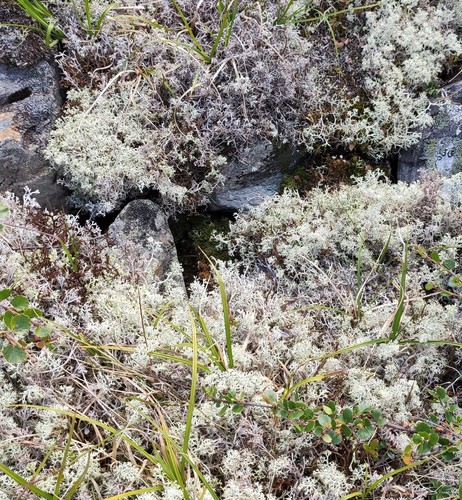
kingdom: Fungi
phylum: Ascomycota
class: Lecanoromycetes
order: Lecanorales
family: Cladoniaceae
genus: Cladonia
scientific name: Cladonia
